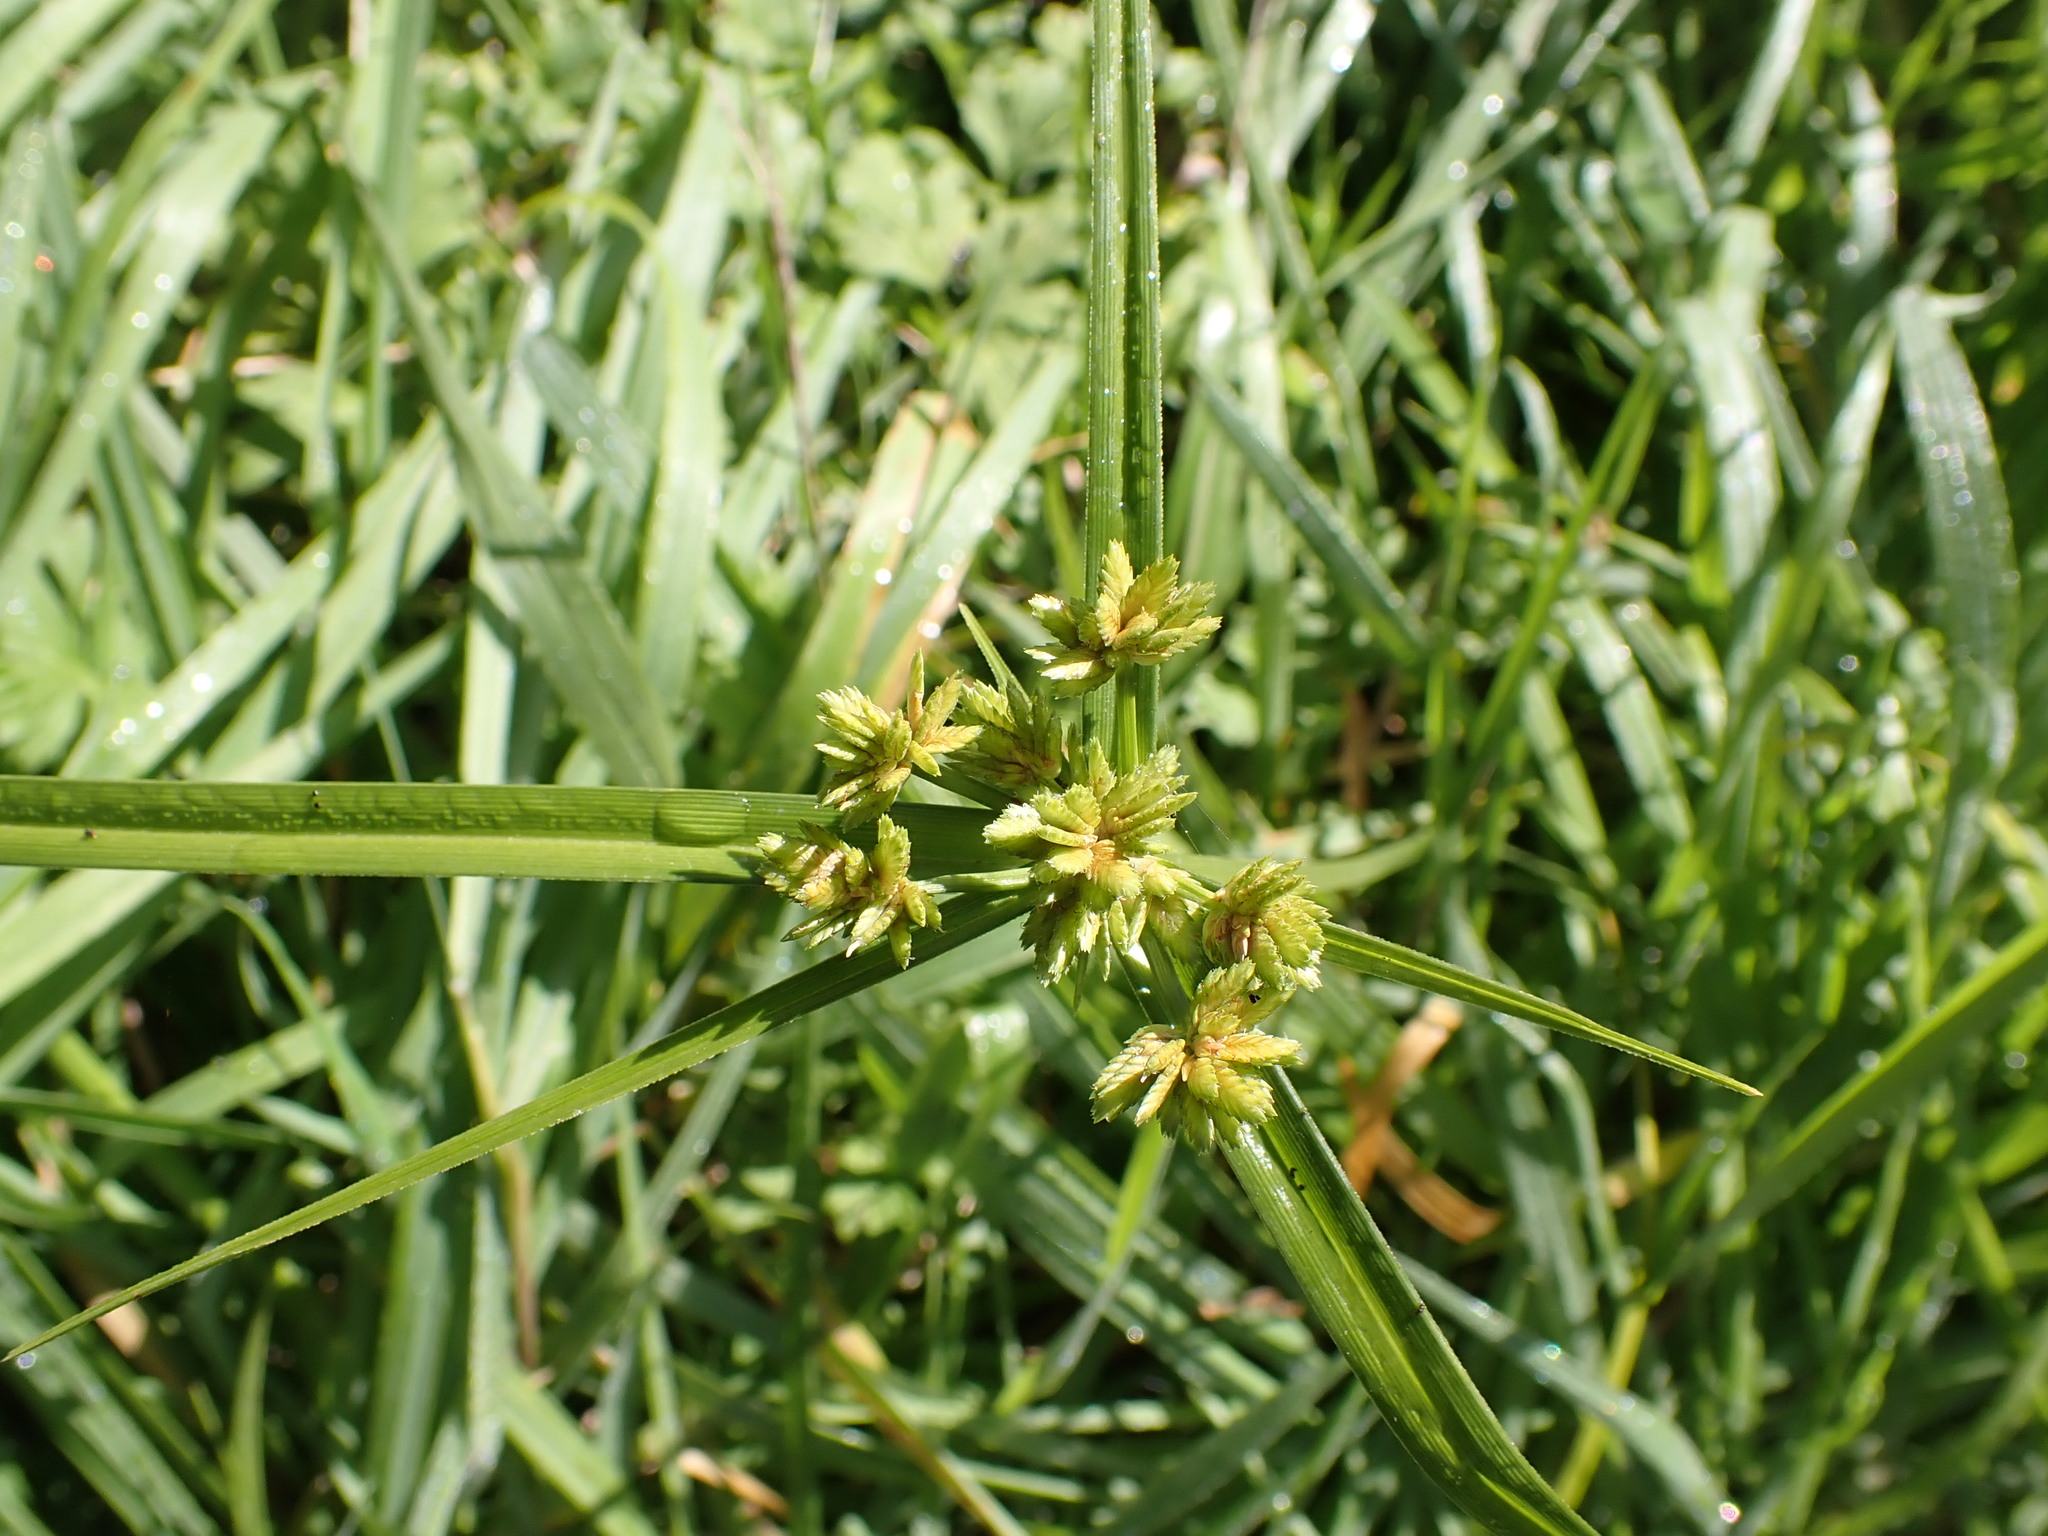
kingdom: Plantae
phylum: Tracheophyta
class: Liliopsida
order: Poales
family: Cyperaceae
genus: Cyperus
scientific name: Cyperus eragrostis
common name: Tall flatsedge
